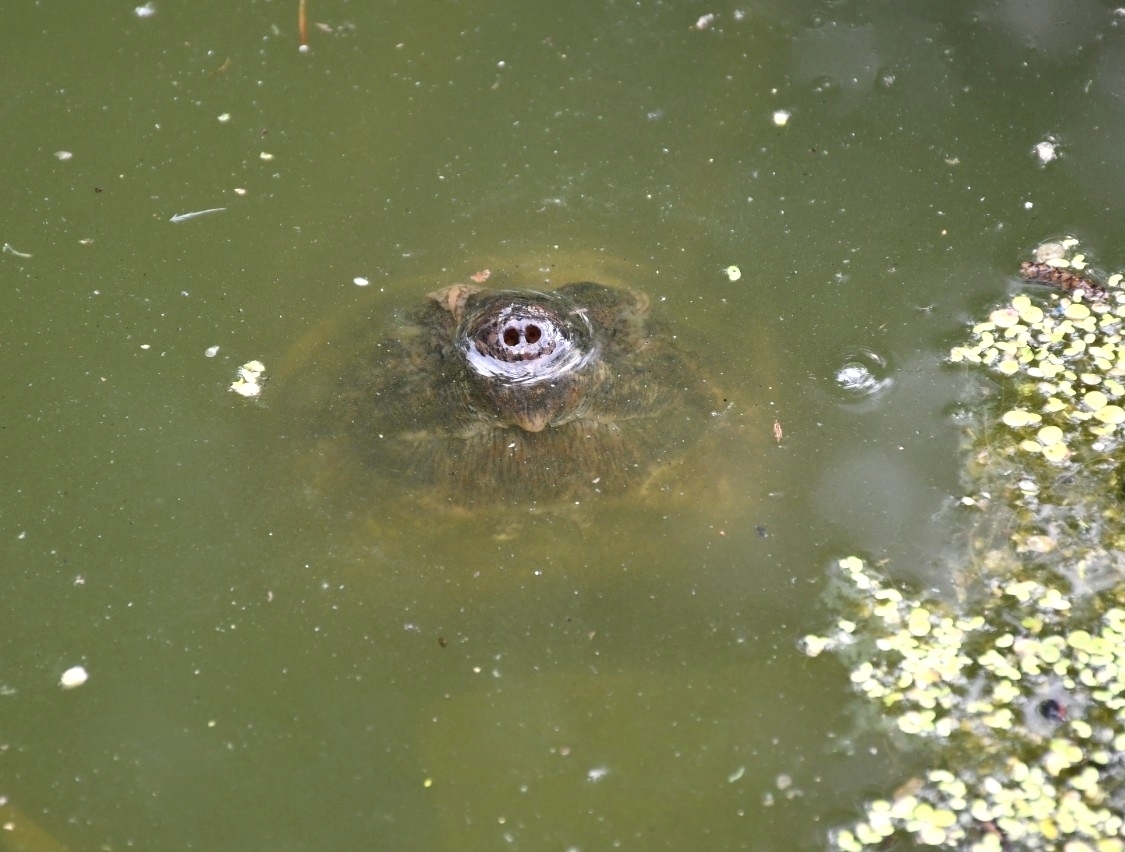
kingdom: Animalia
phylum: Chordata
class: Testudines
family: Chelydridae
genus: Chelydra
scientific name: Chelydra serpentina
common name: Common snapping turtle
